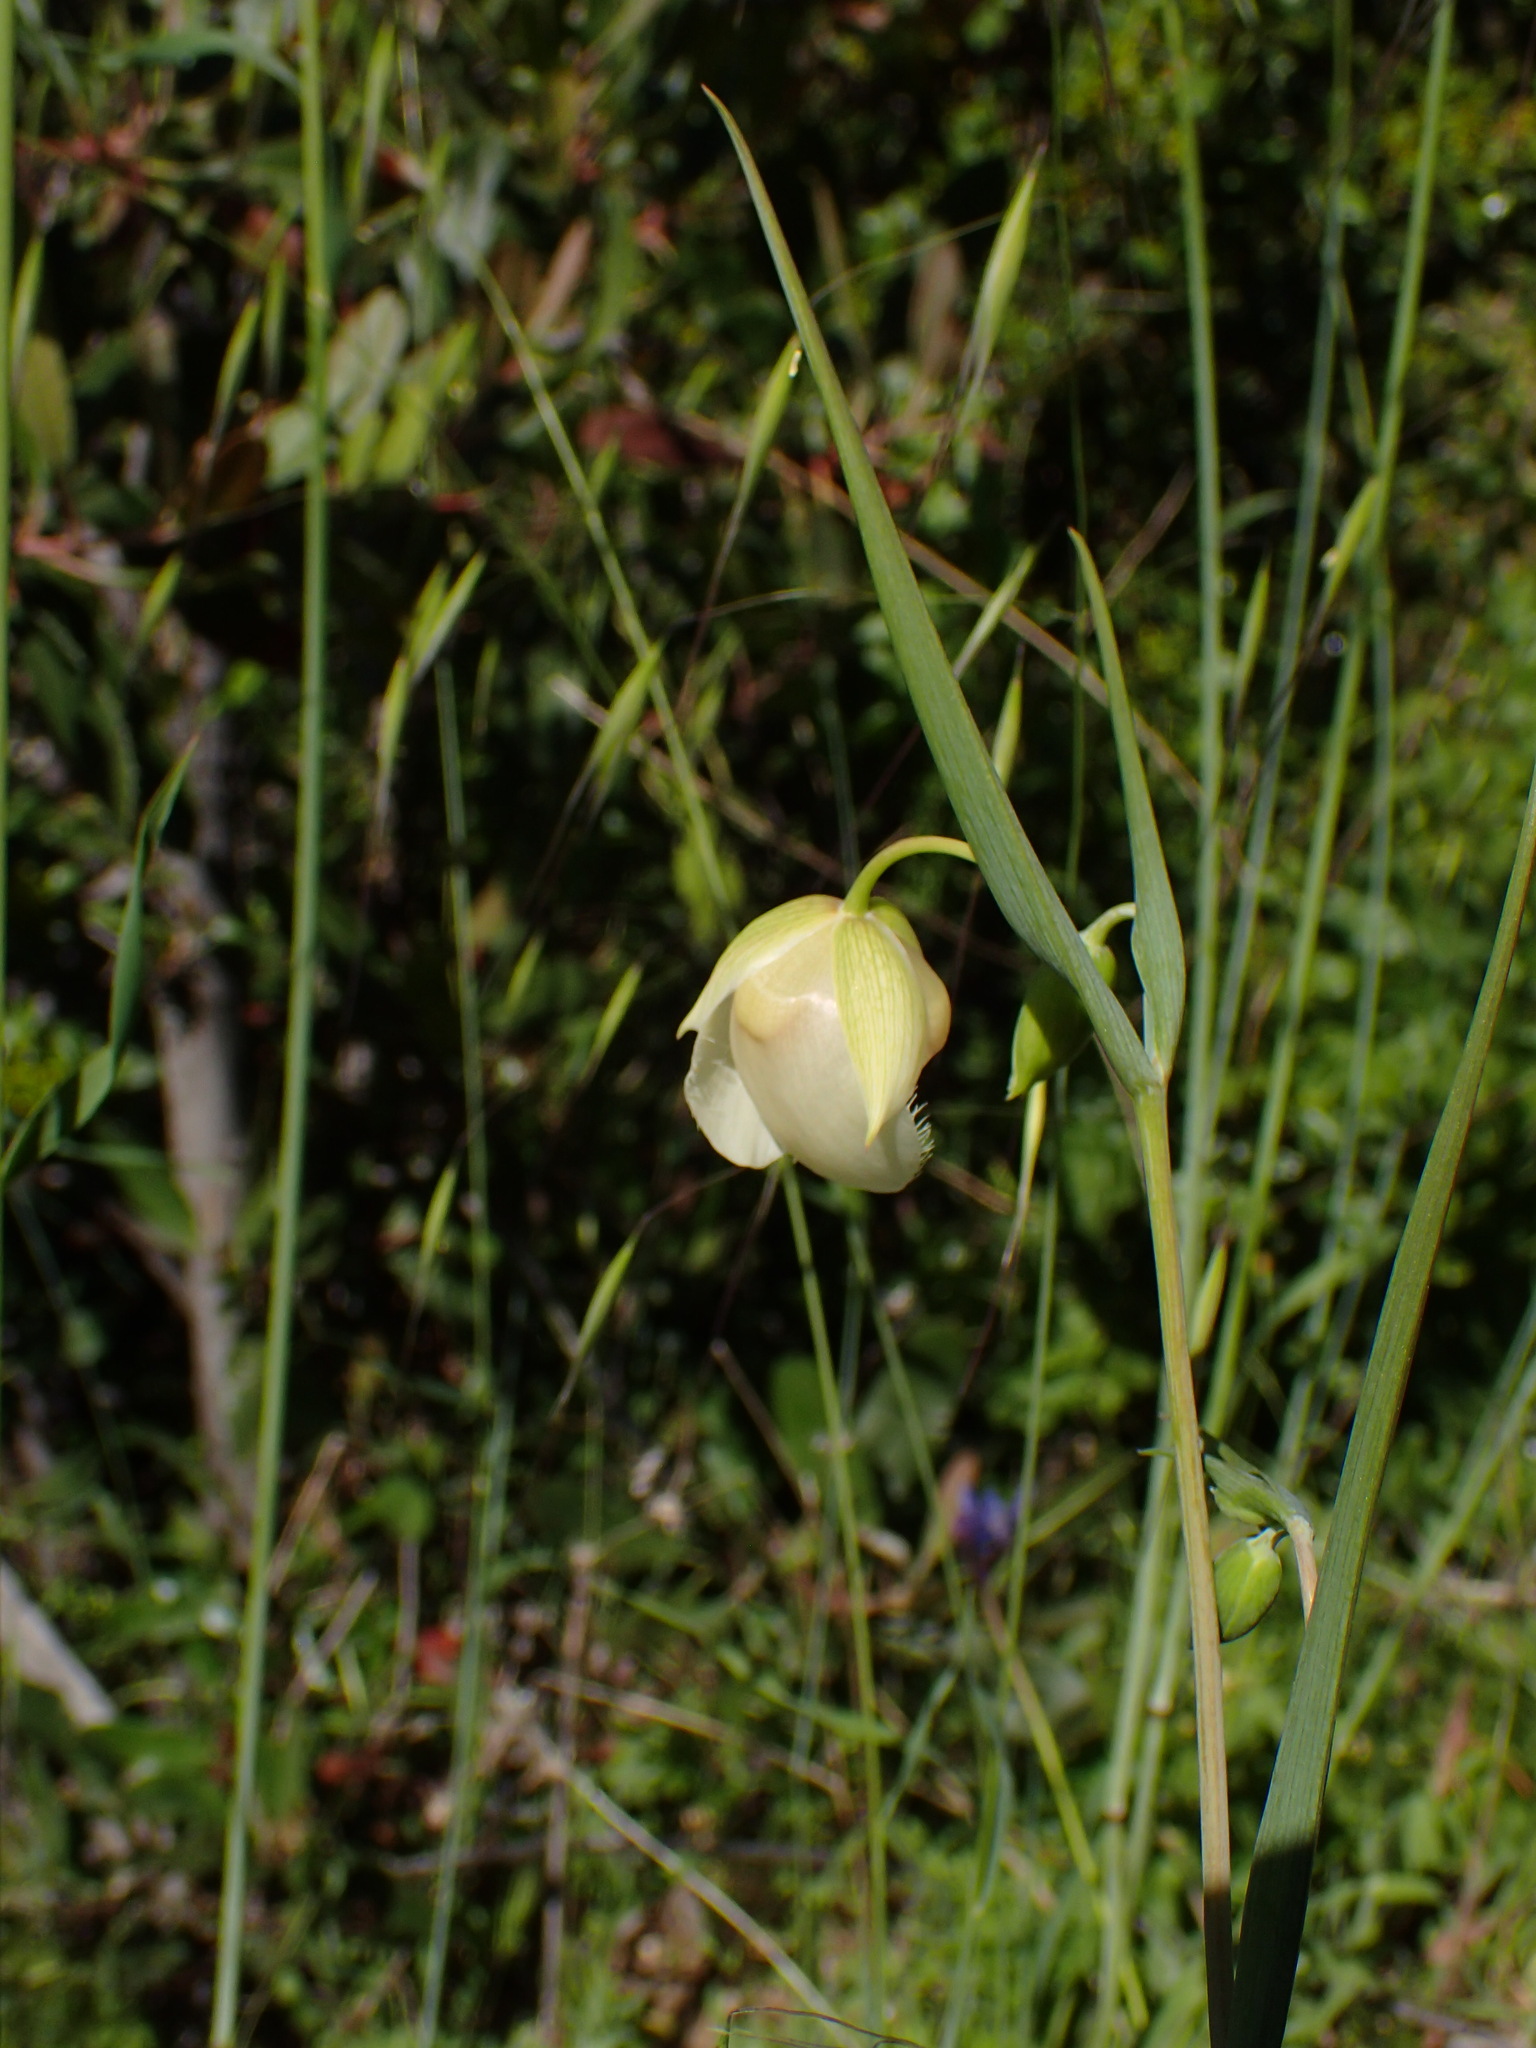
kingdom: Plantae
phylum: Tracheophyta
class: Liliopsida
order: Liliales
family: Liliaceae
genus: Calochortus
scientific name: Calochortus albus
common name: Fairy-lantern
